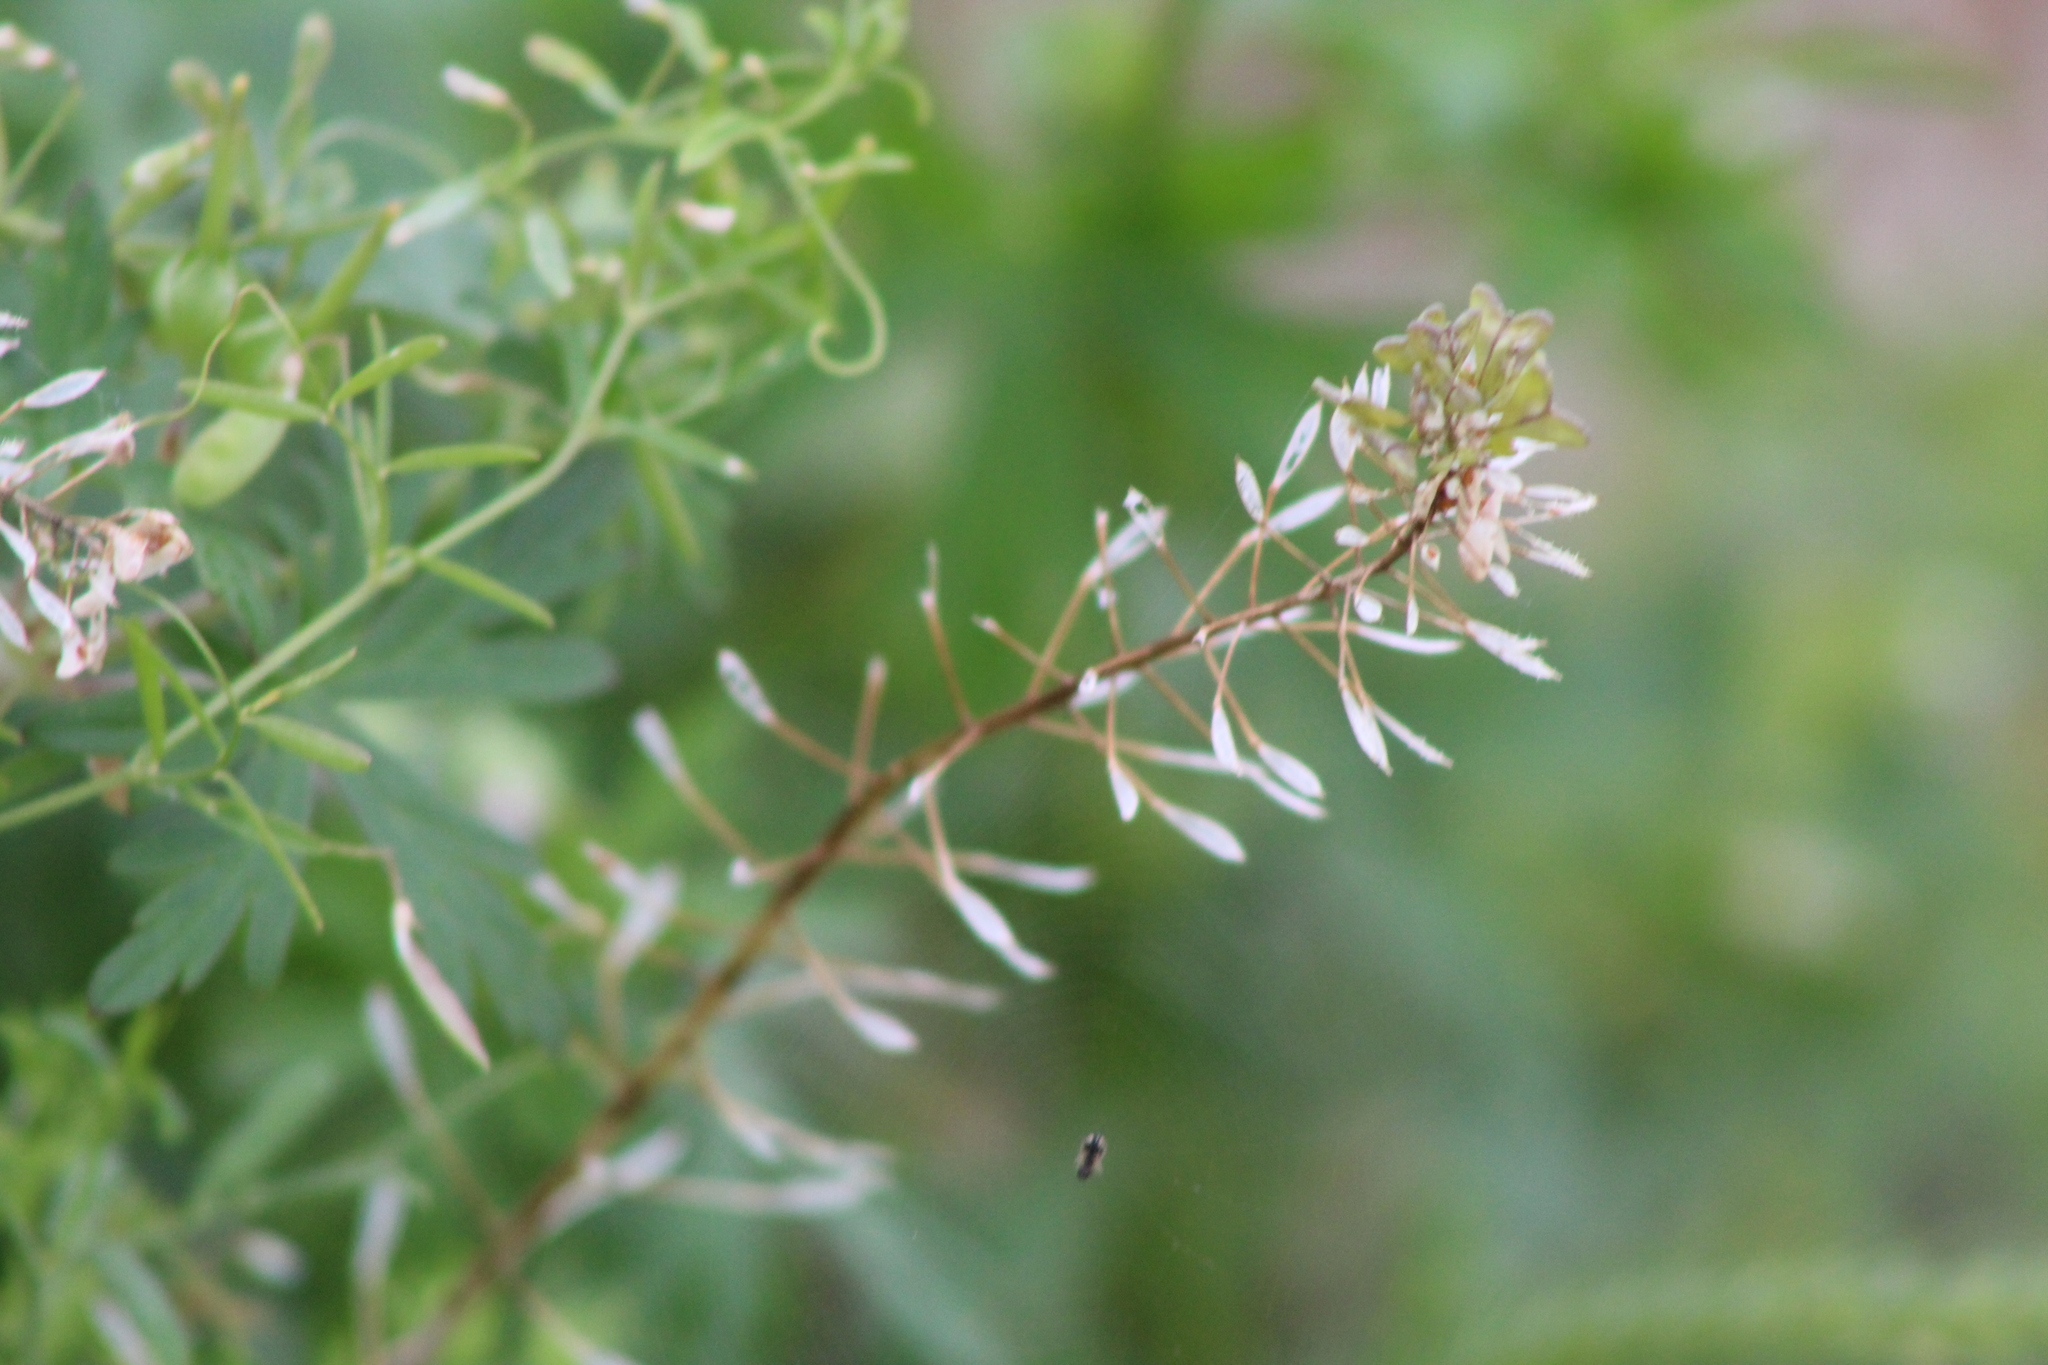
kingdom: Plantae
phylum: Tracheophyta
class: Magnoliopsida
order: Brassicales
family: Brassicaceae
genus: Capsella
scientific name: Capsella bursa-pastoris
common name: Shepherd's purse
